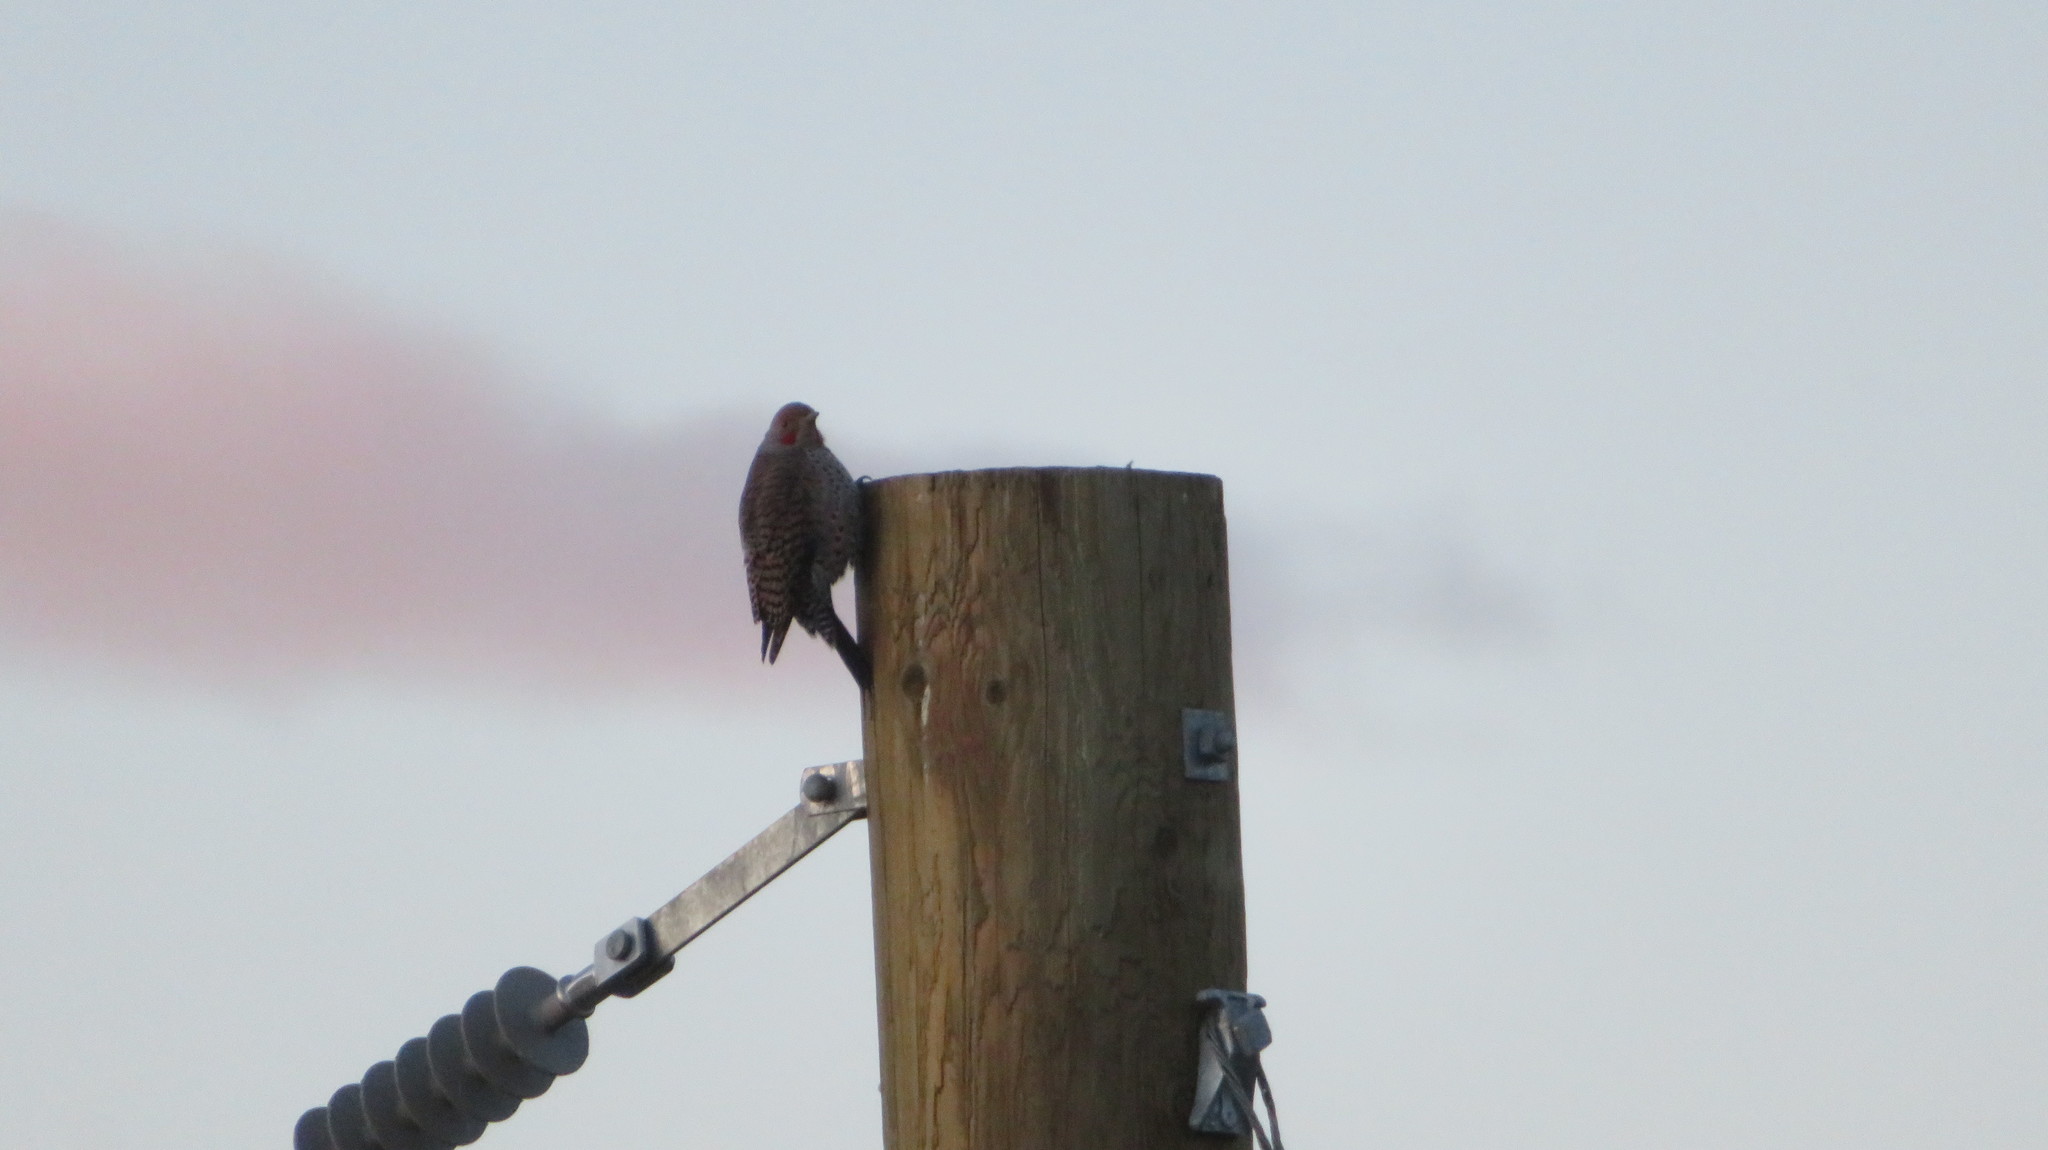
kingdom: Animalia
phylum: Chordata
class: Aves
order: Piciformes
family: Picidae
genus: Colaptes
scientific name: Colaptes auratus
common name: Northern flicker
